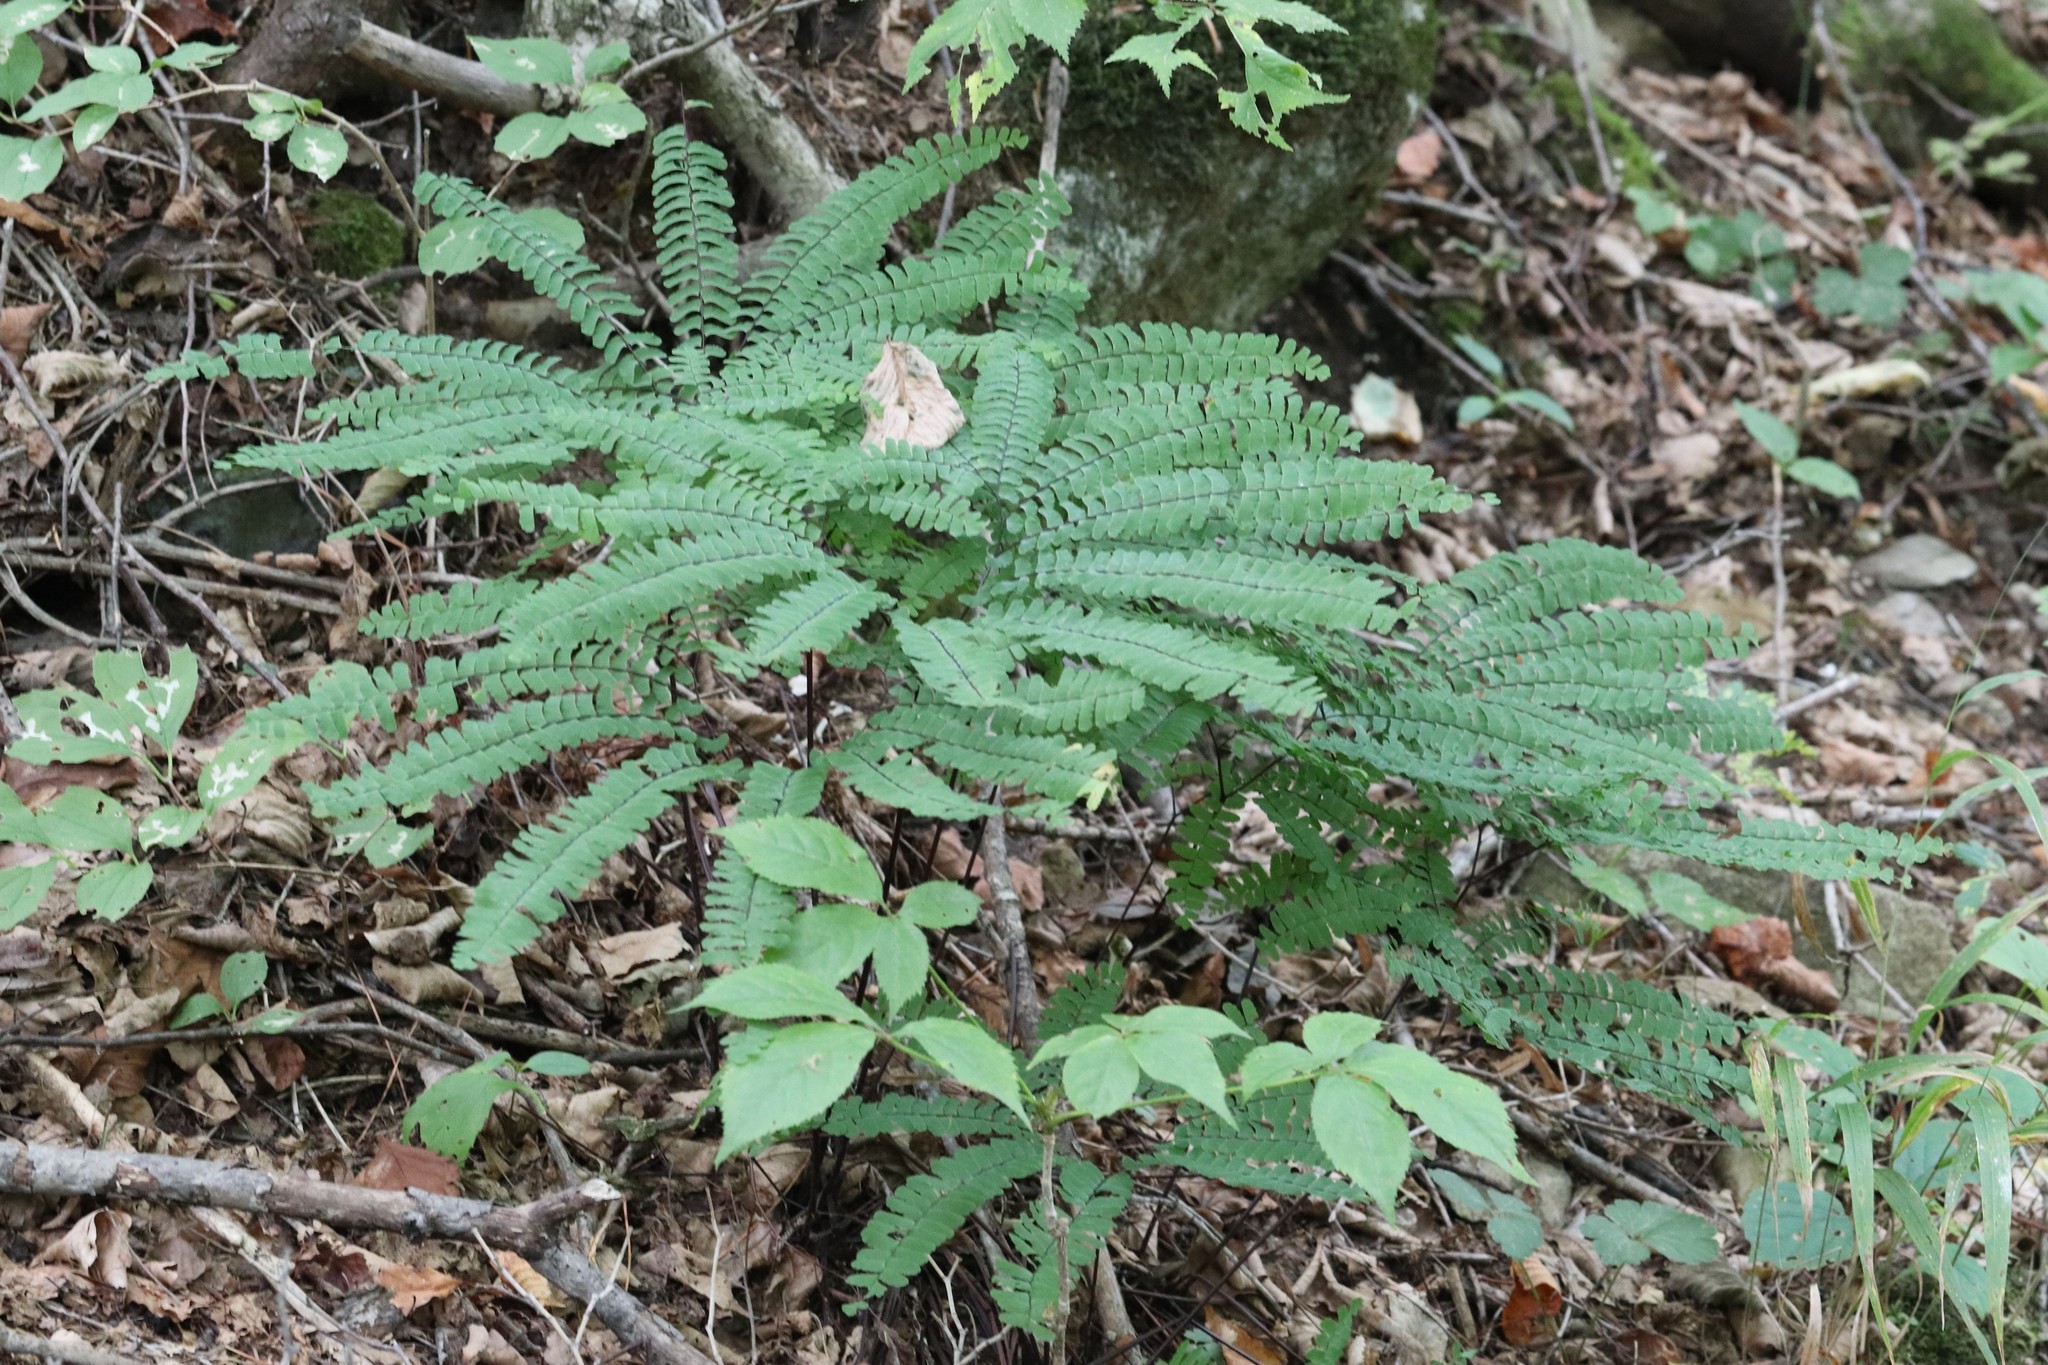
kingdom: Plantae
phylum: Tracheophyta
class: Polypodiopsida
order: Polypodiales
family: Pteridaceae
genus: Adiantum
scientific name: Adiantum pedatum
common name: Five-finger fern
